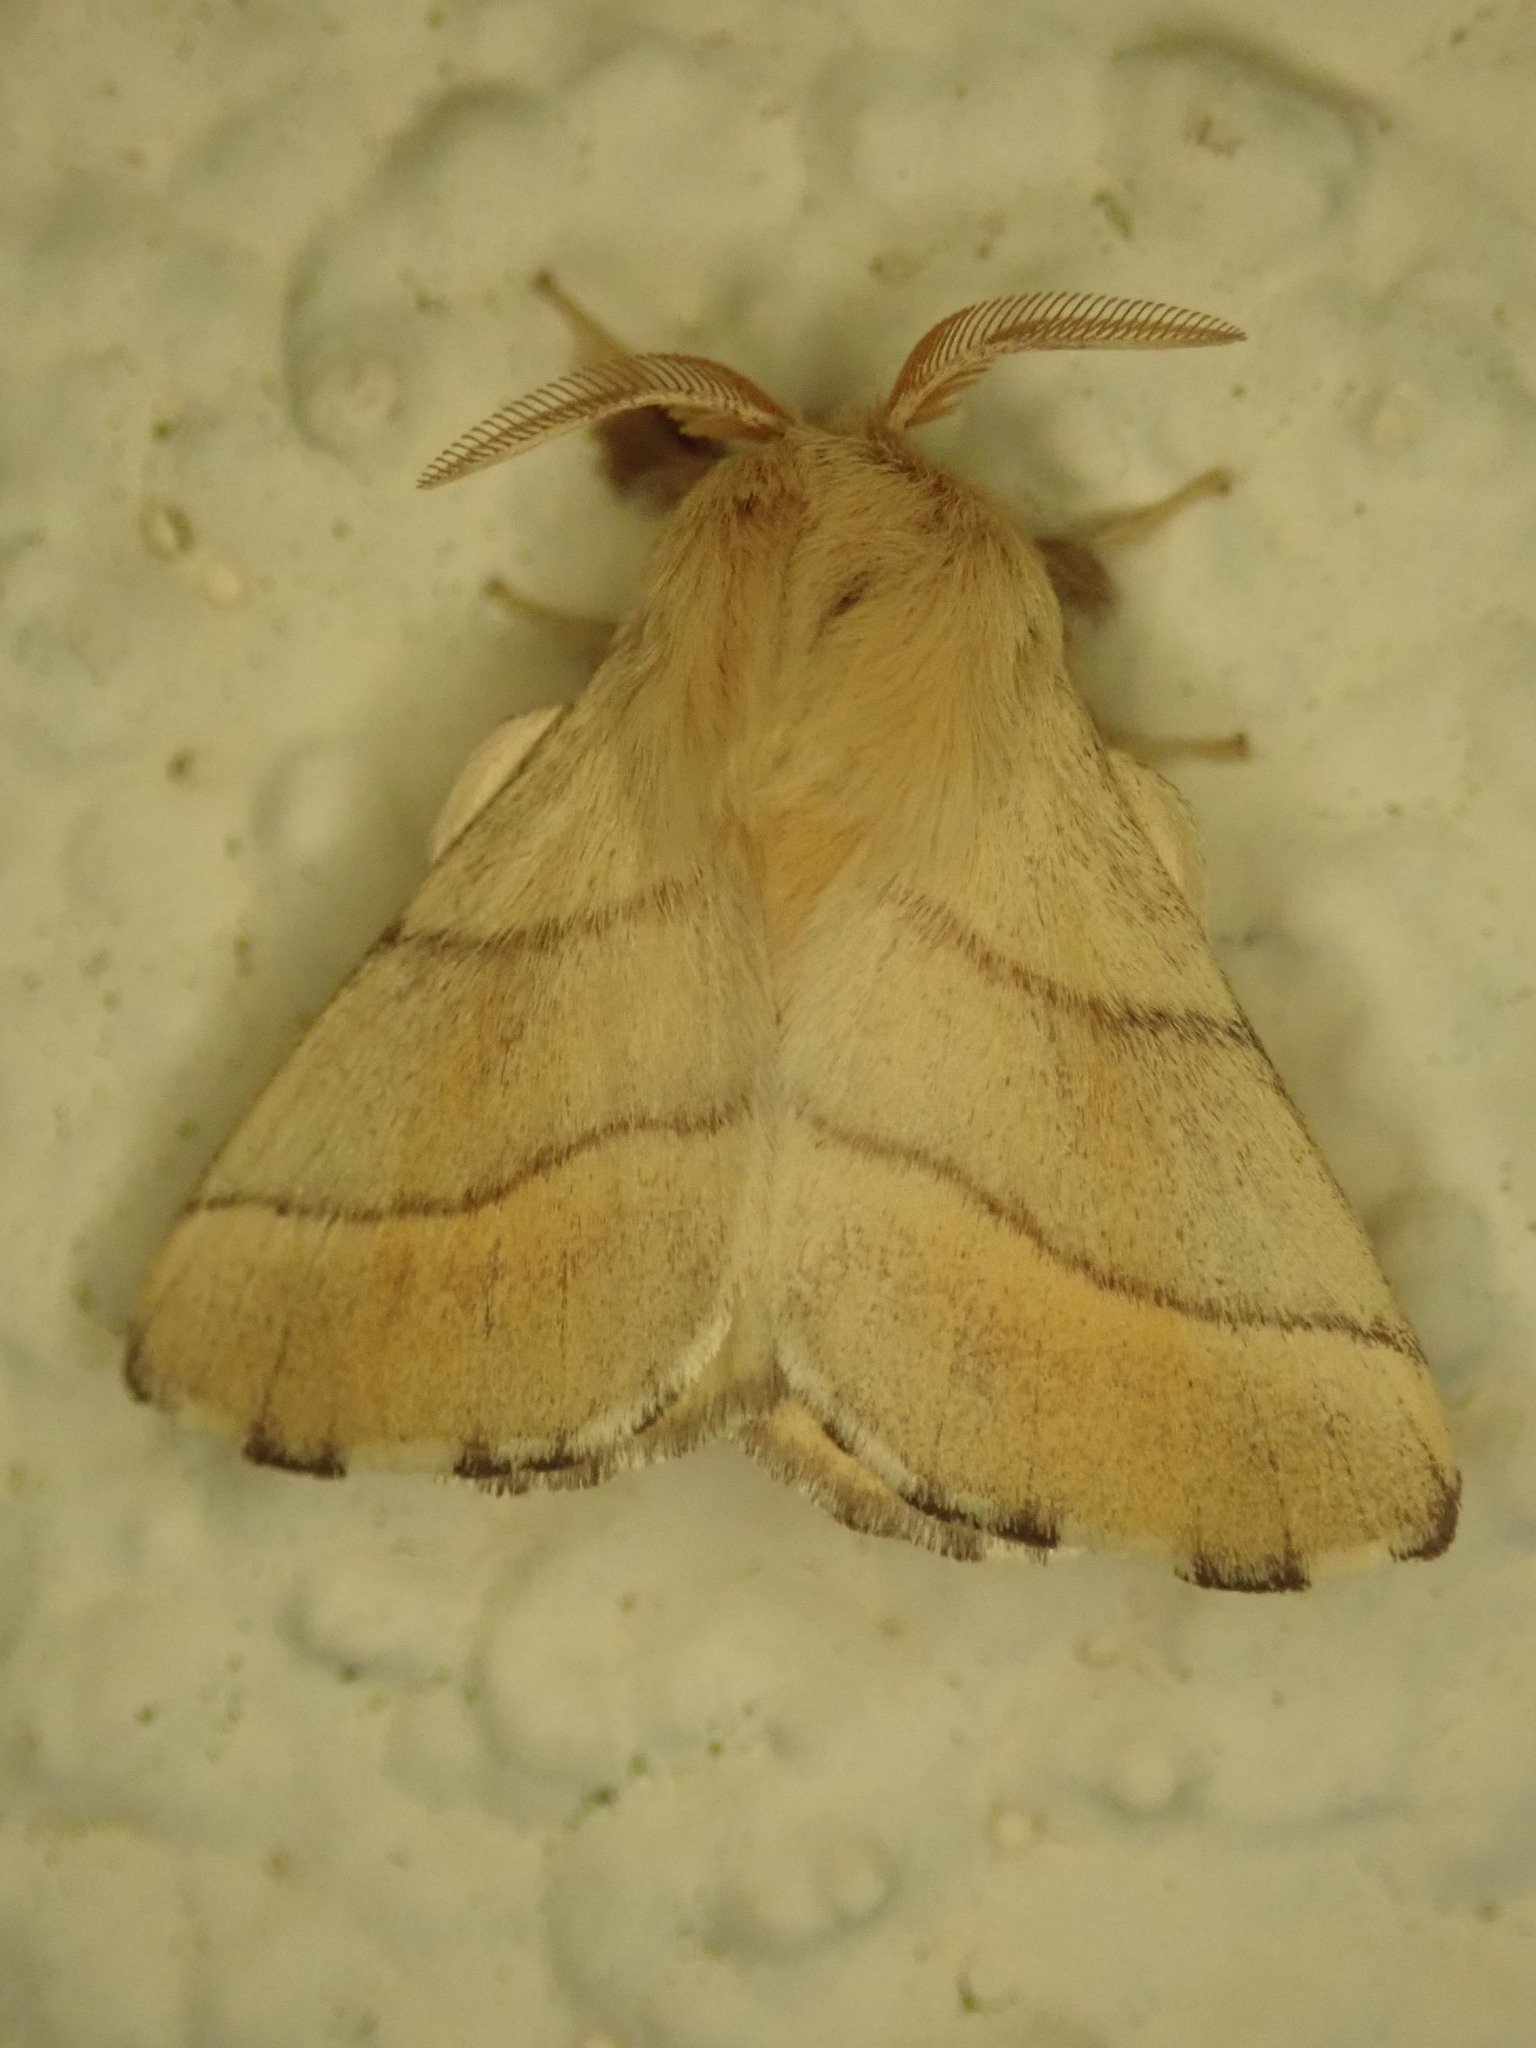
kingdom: Animalia
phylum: Arthropoda
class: Insecta
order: Lepidoptera
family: Lasiocampidae
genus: Malacosoma
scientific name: Malacosoma neustria
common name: The lackey
